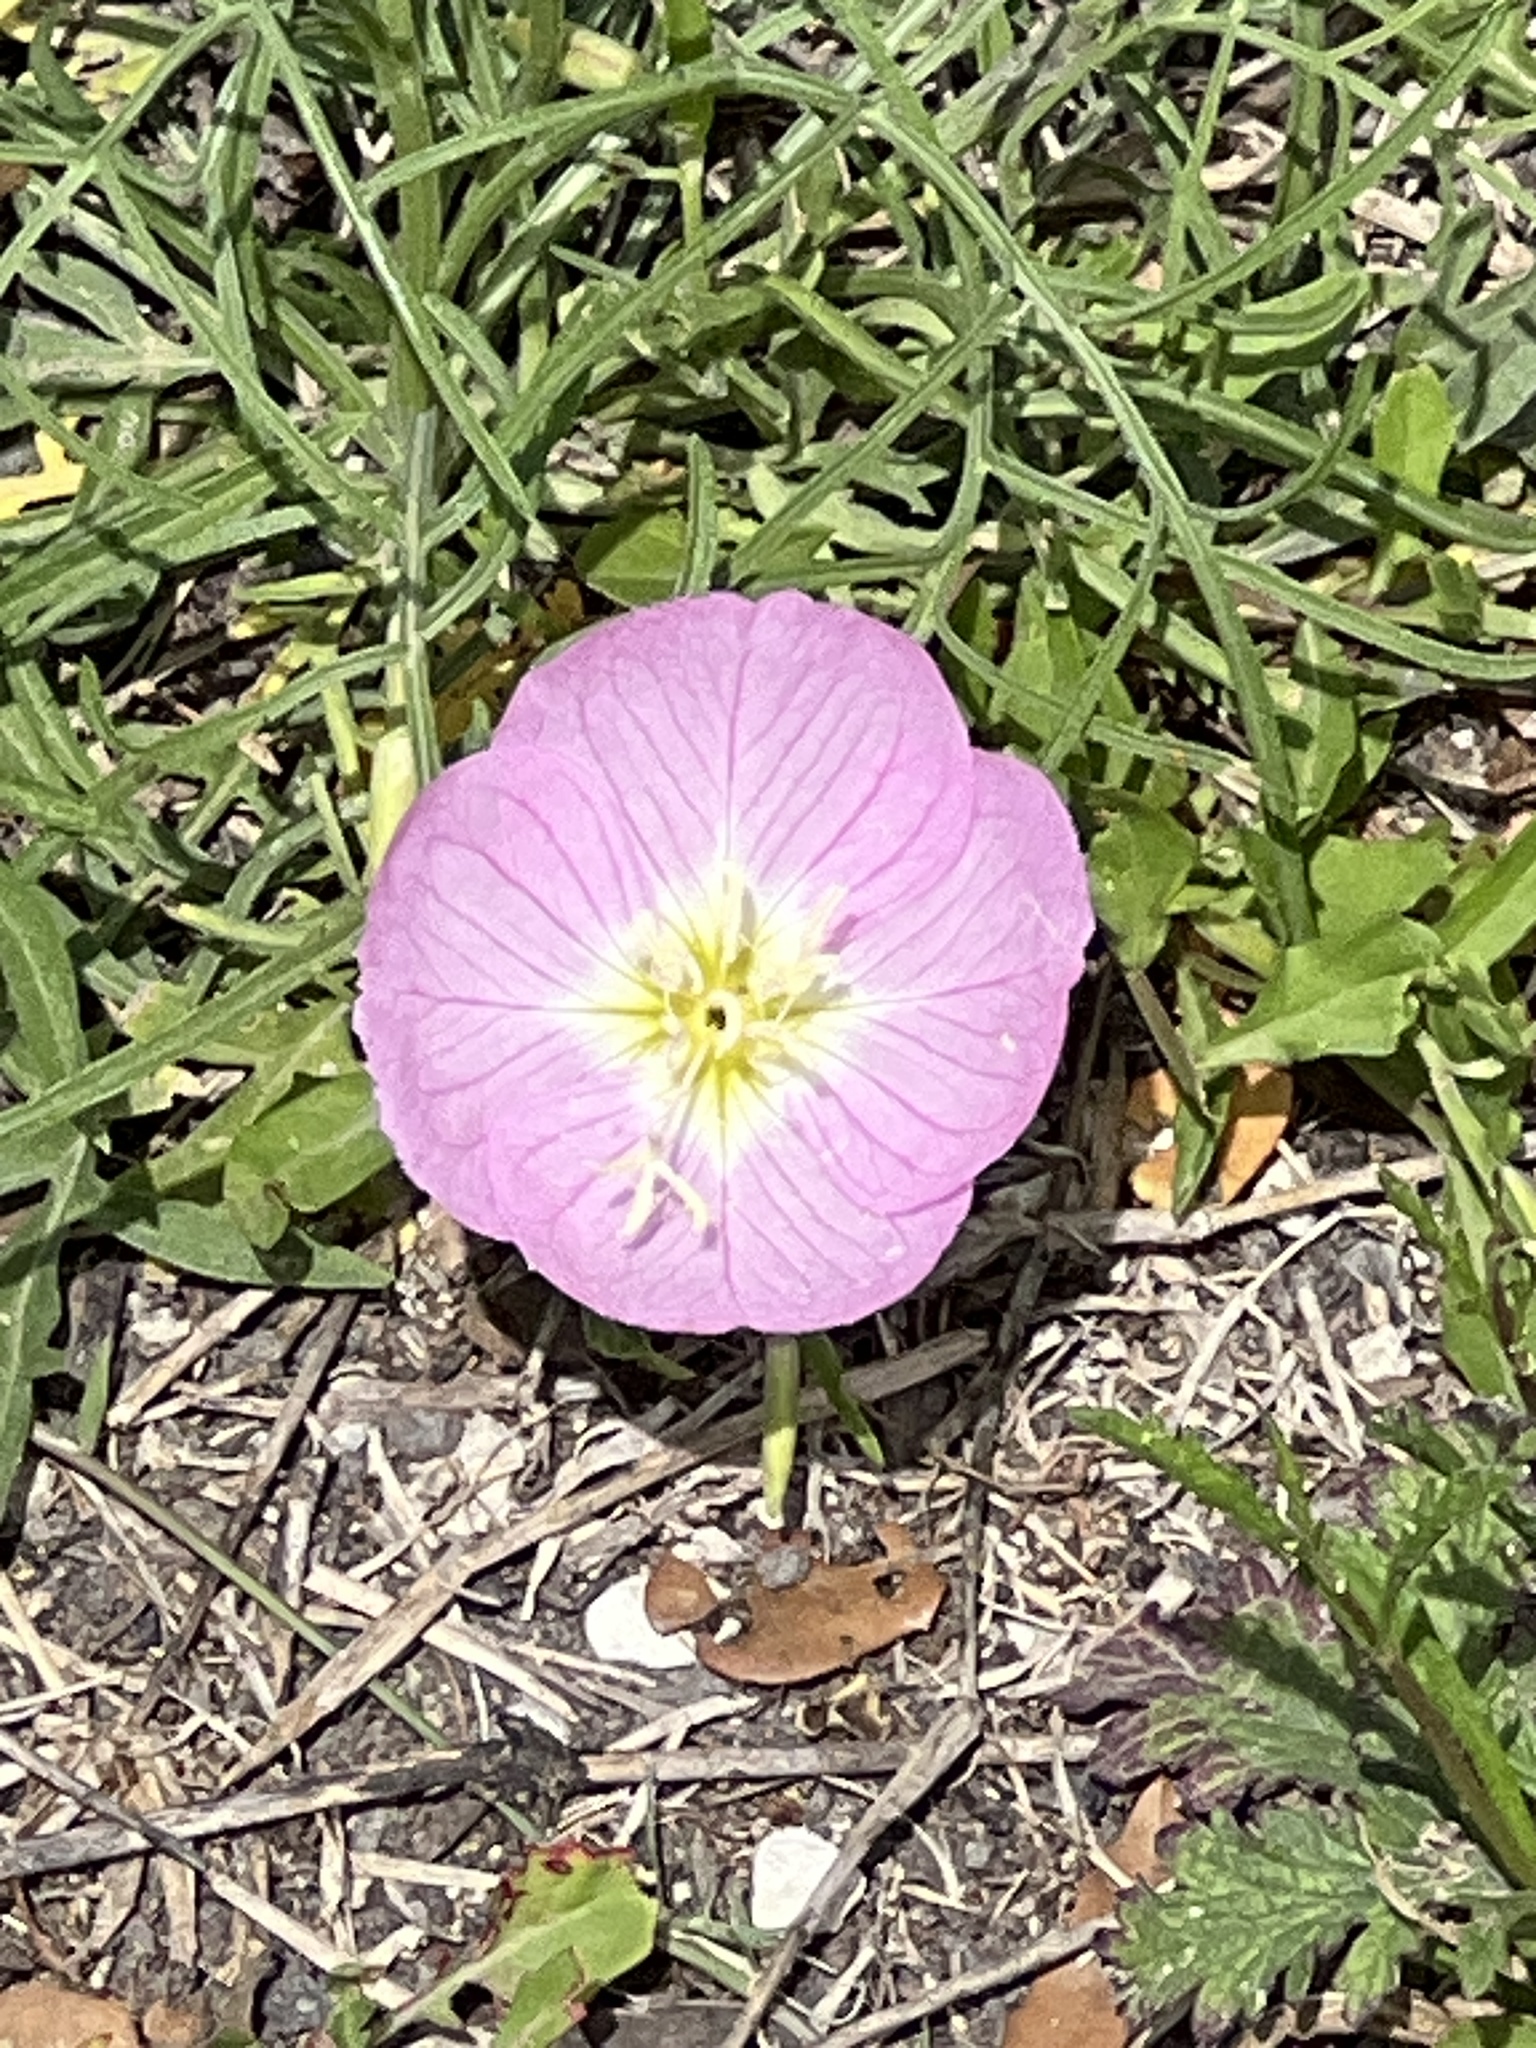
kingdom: Plantae
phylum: Tracheophyta
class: Magnoliopsida
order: Myrtales
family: Onagraceae
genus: Oenothera
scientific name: Oenothera speciosa
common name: White evening-primrose
